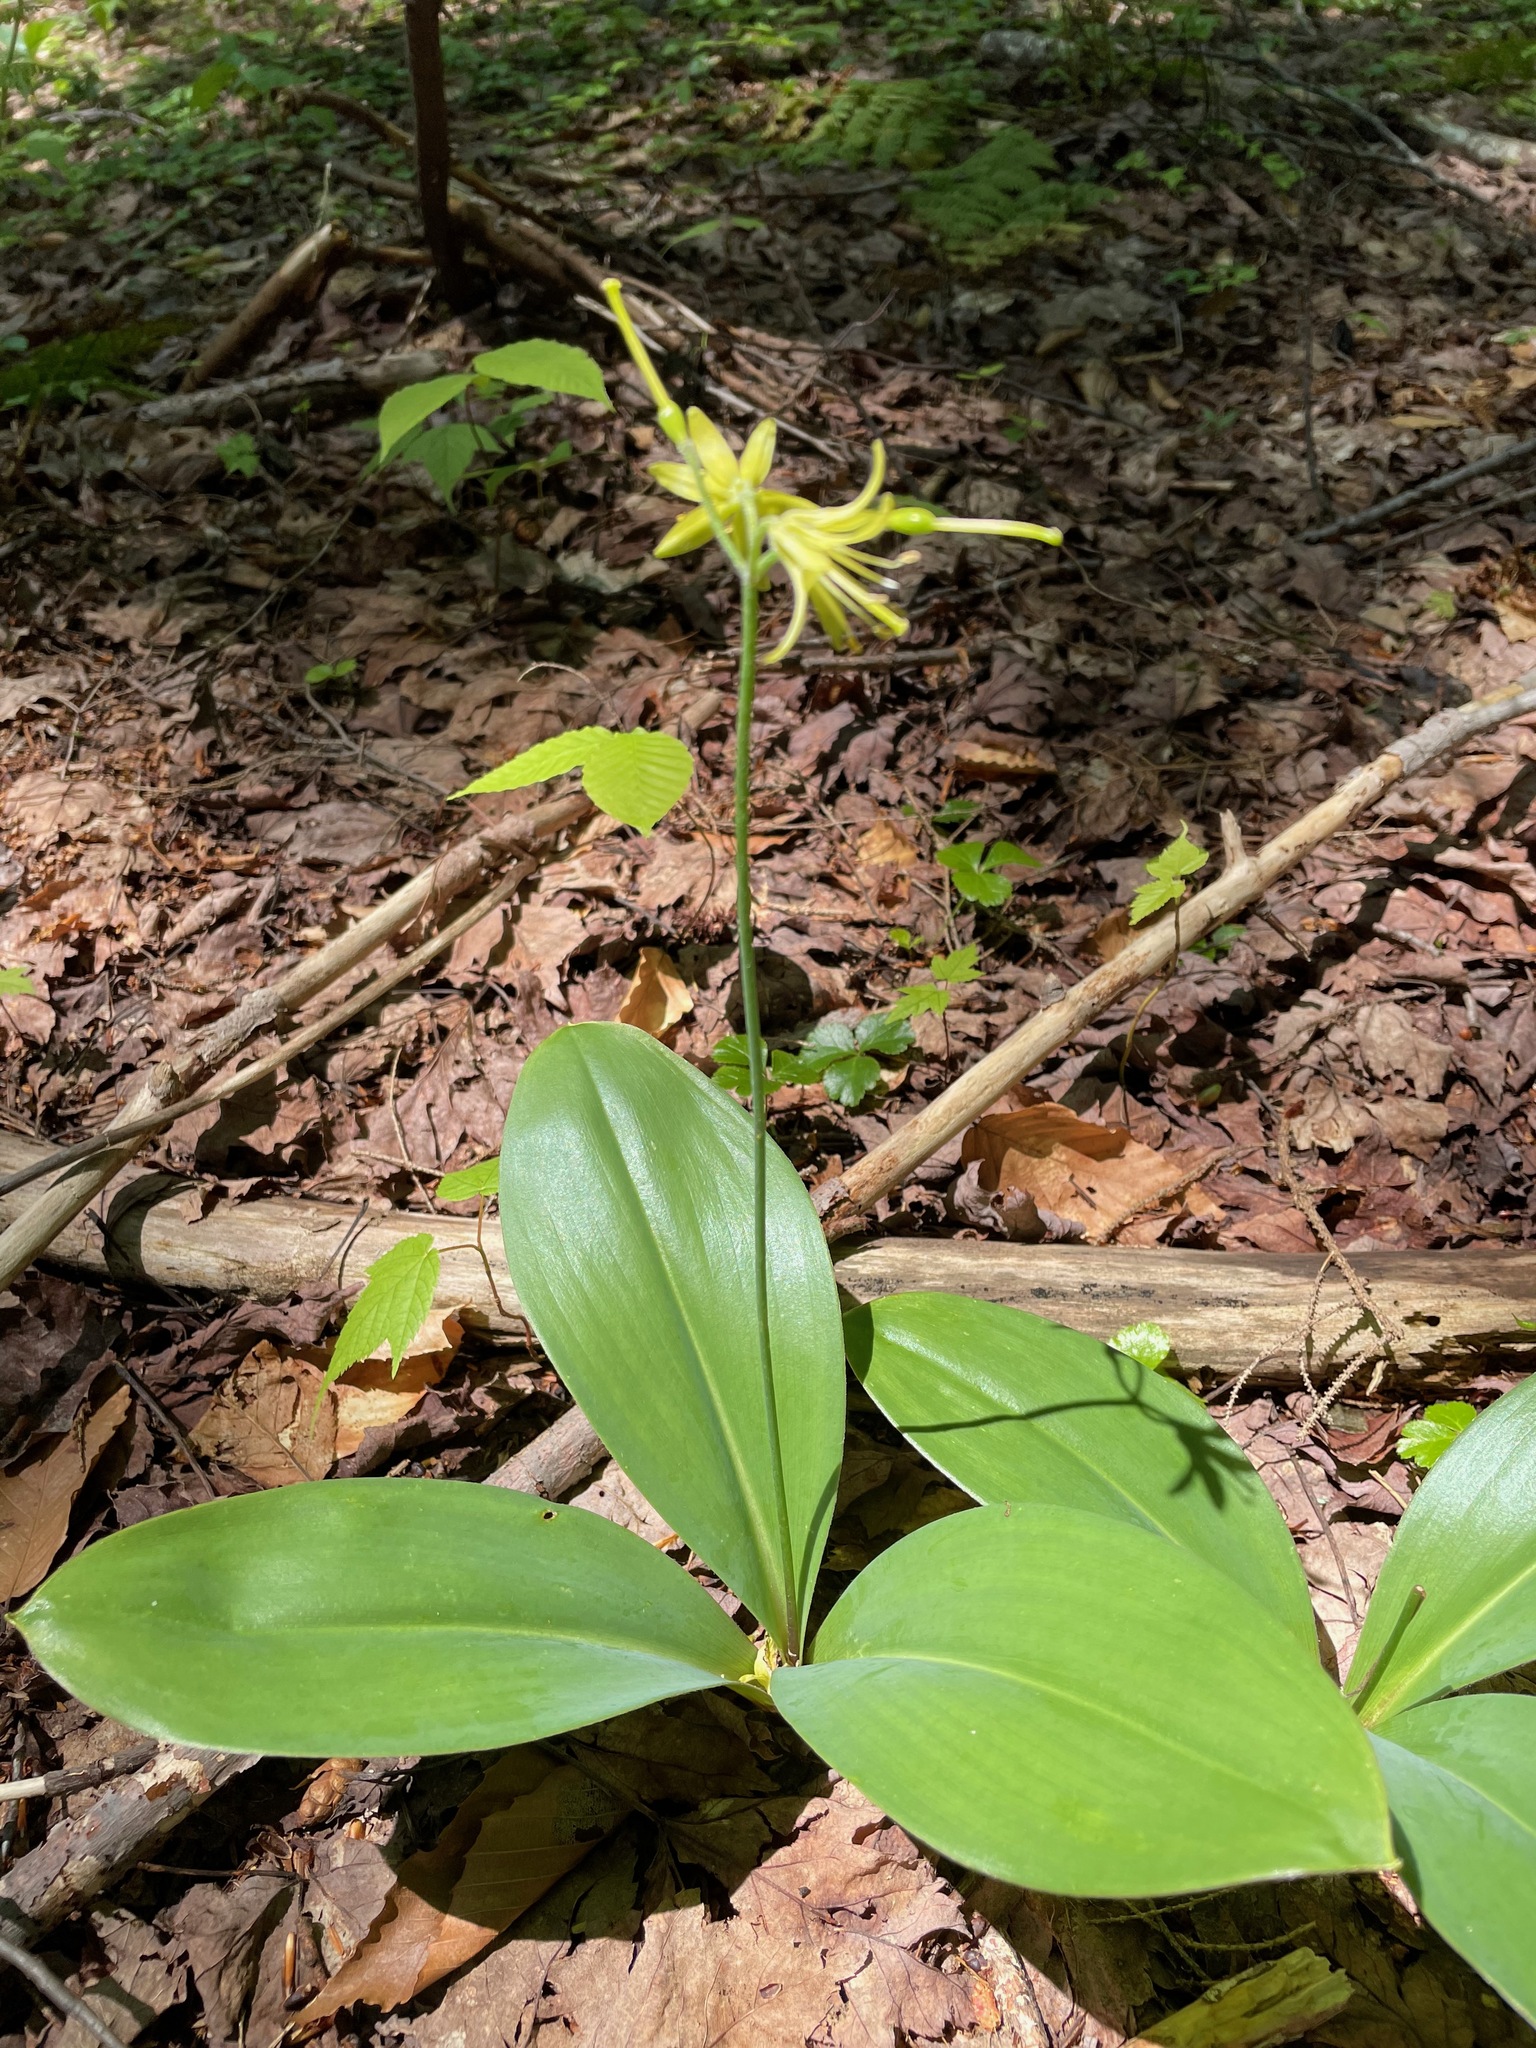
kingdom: Plantae
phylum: Tracheophyta
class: Liliopsida
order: Liliales
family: Liliaceae
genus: Clintonia
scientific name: Clintonia borealis
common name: Yellow clintonia
